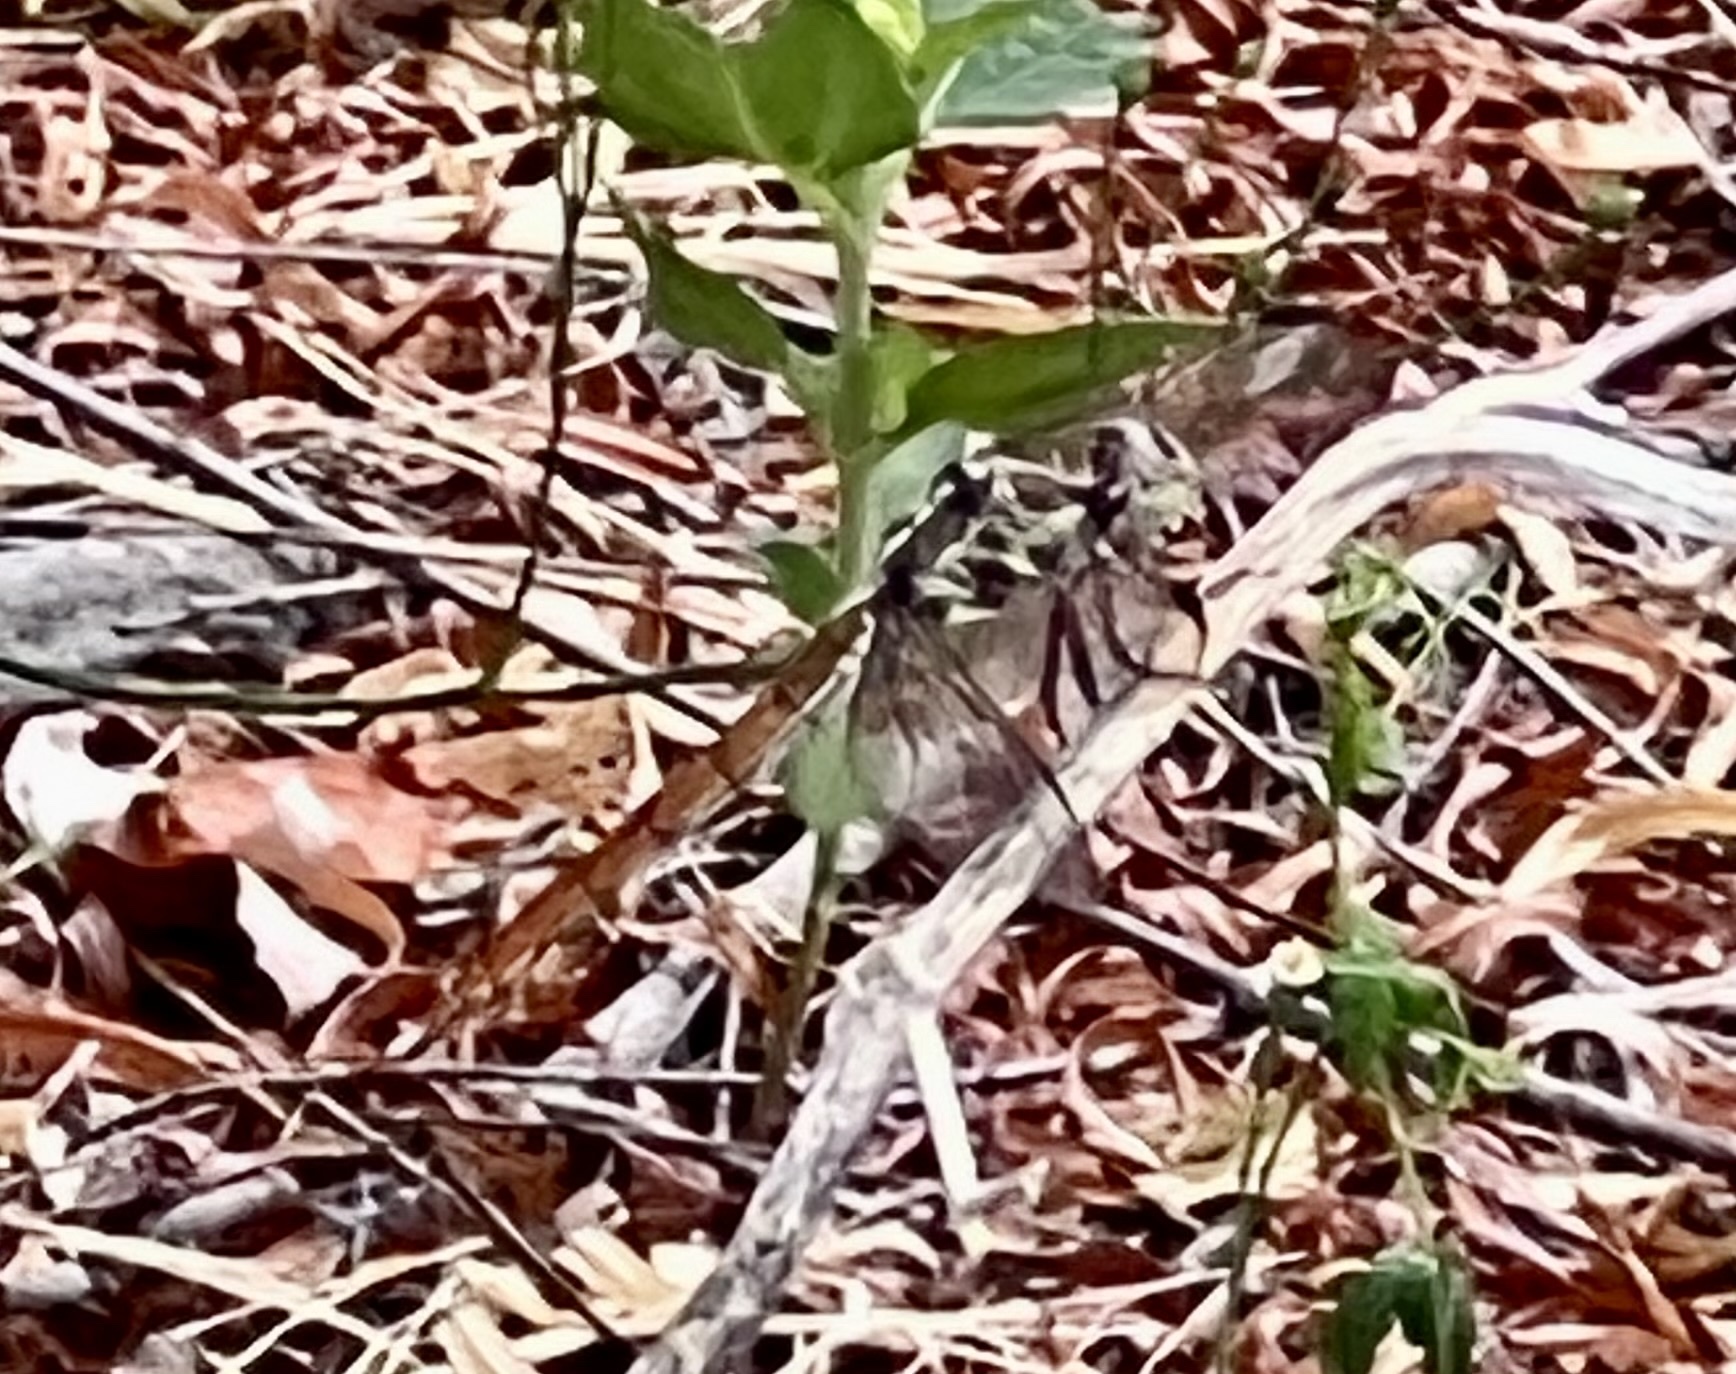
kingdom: Animalia
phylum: Arthropoda
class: Insecta
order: Odonata
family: Libellulidae
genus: Orthemis
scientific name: Orthemis ferruginea
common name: Roseate skimmer
